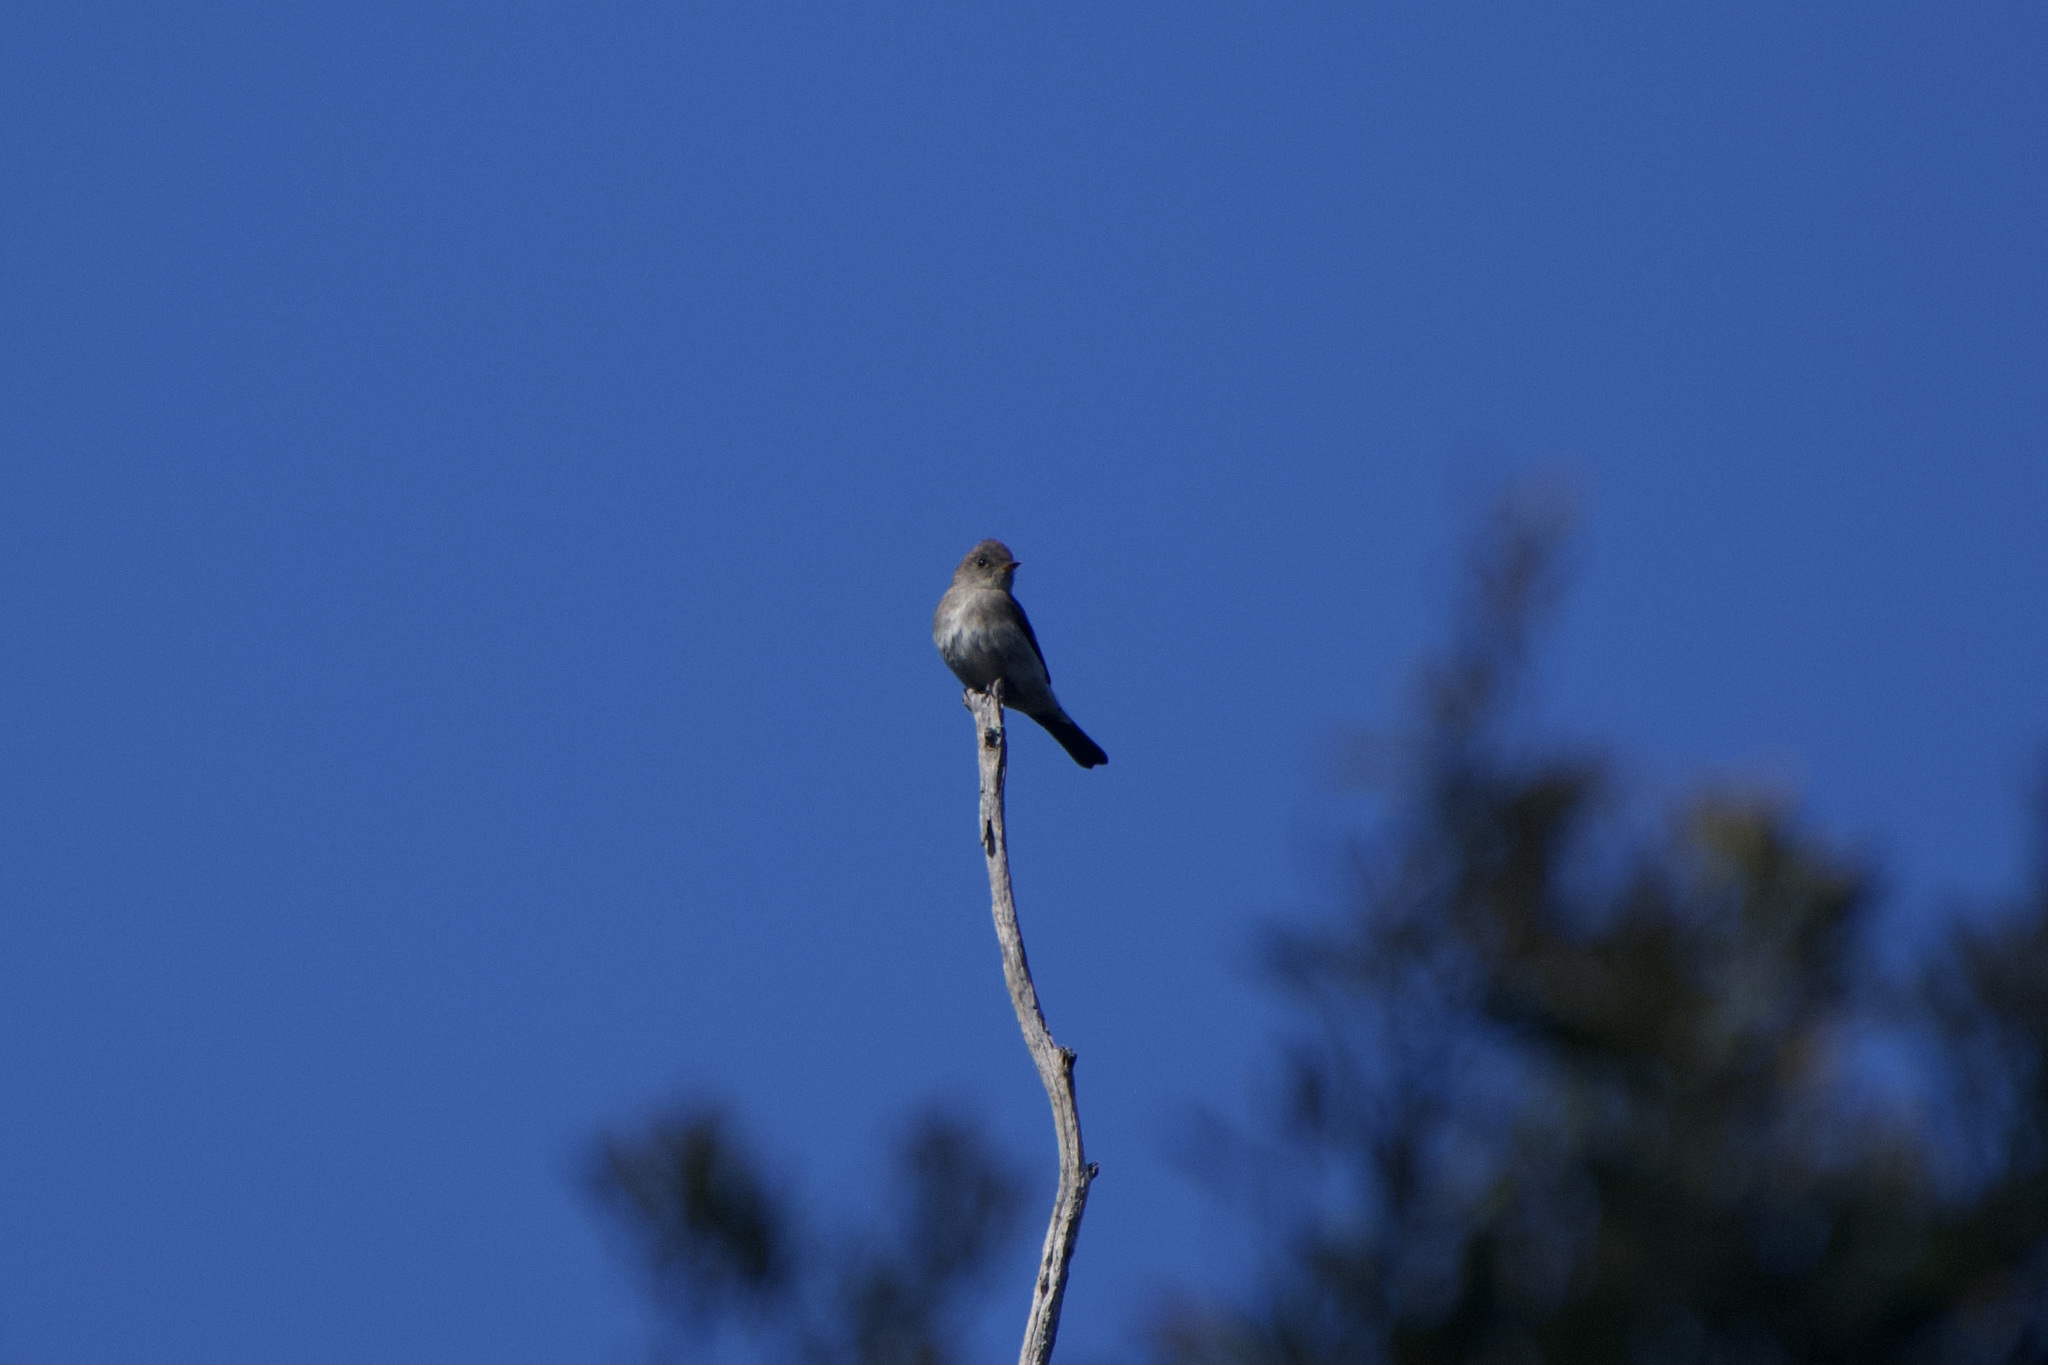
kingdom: Animalia
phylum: Chordata
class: Aves
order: Passeriformes
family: Tyrannidae
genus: Contopus
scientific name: Contopus sordidulus
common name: Western wood-pewee
